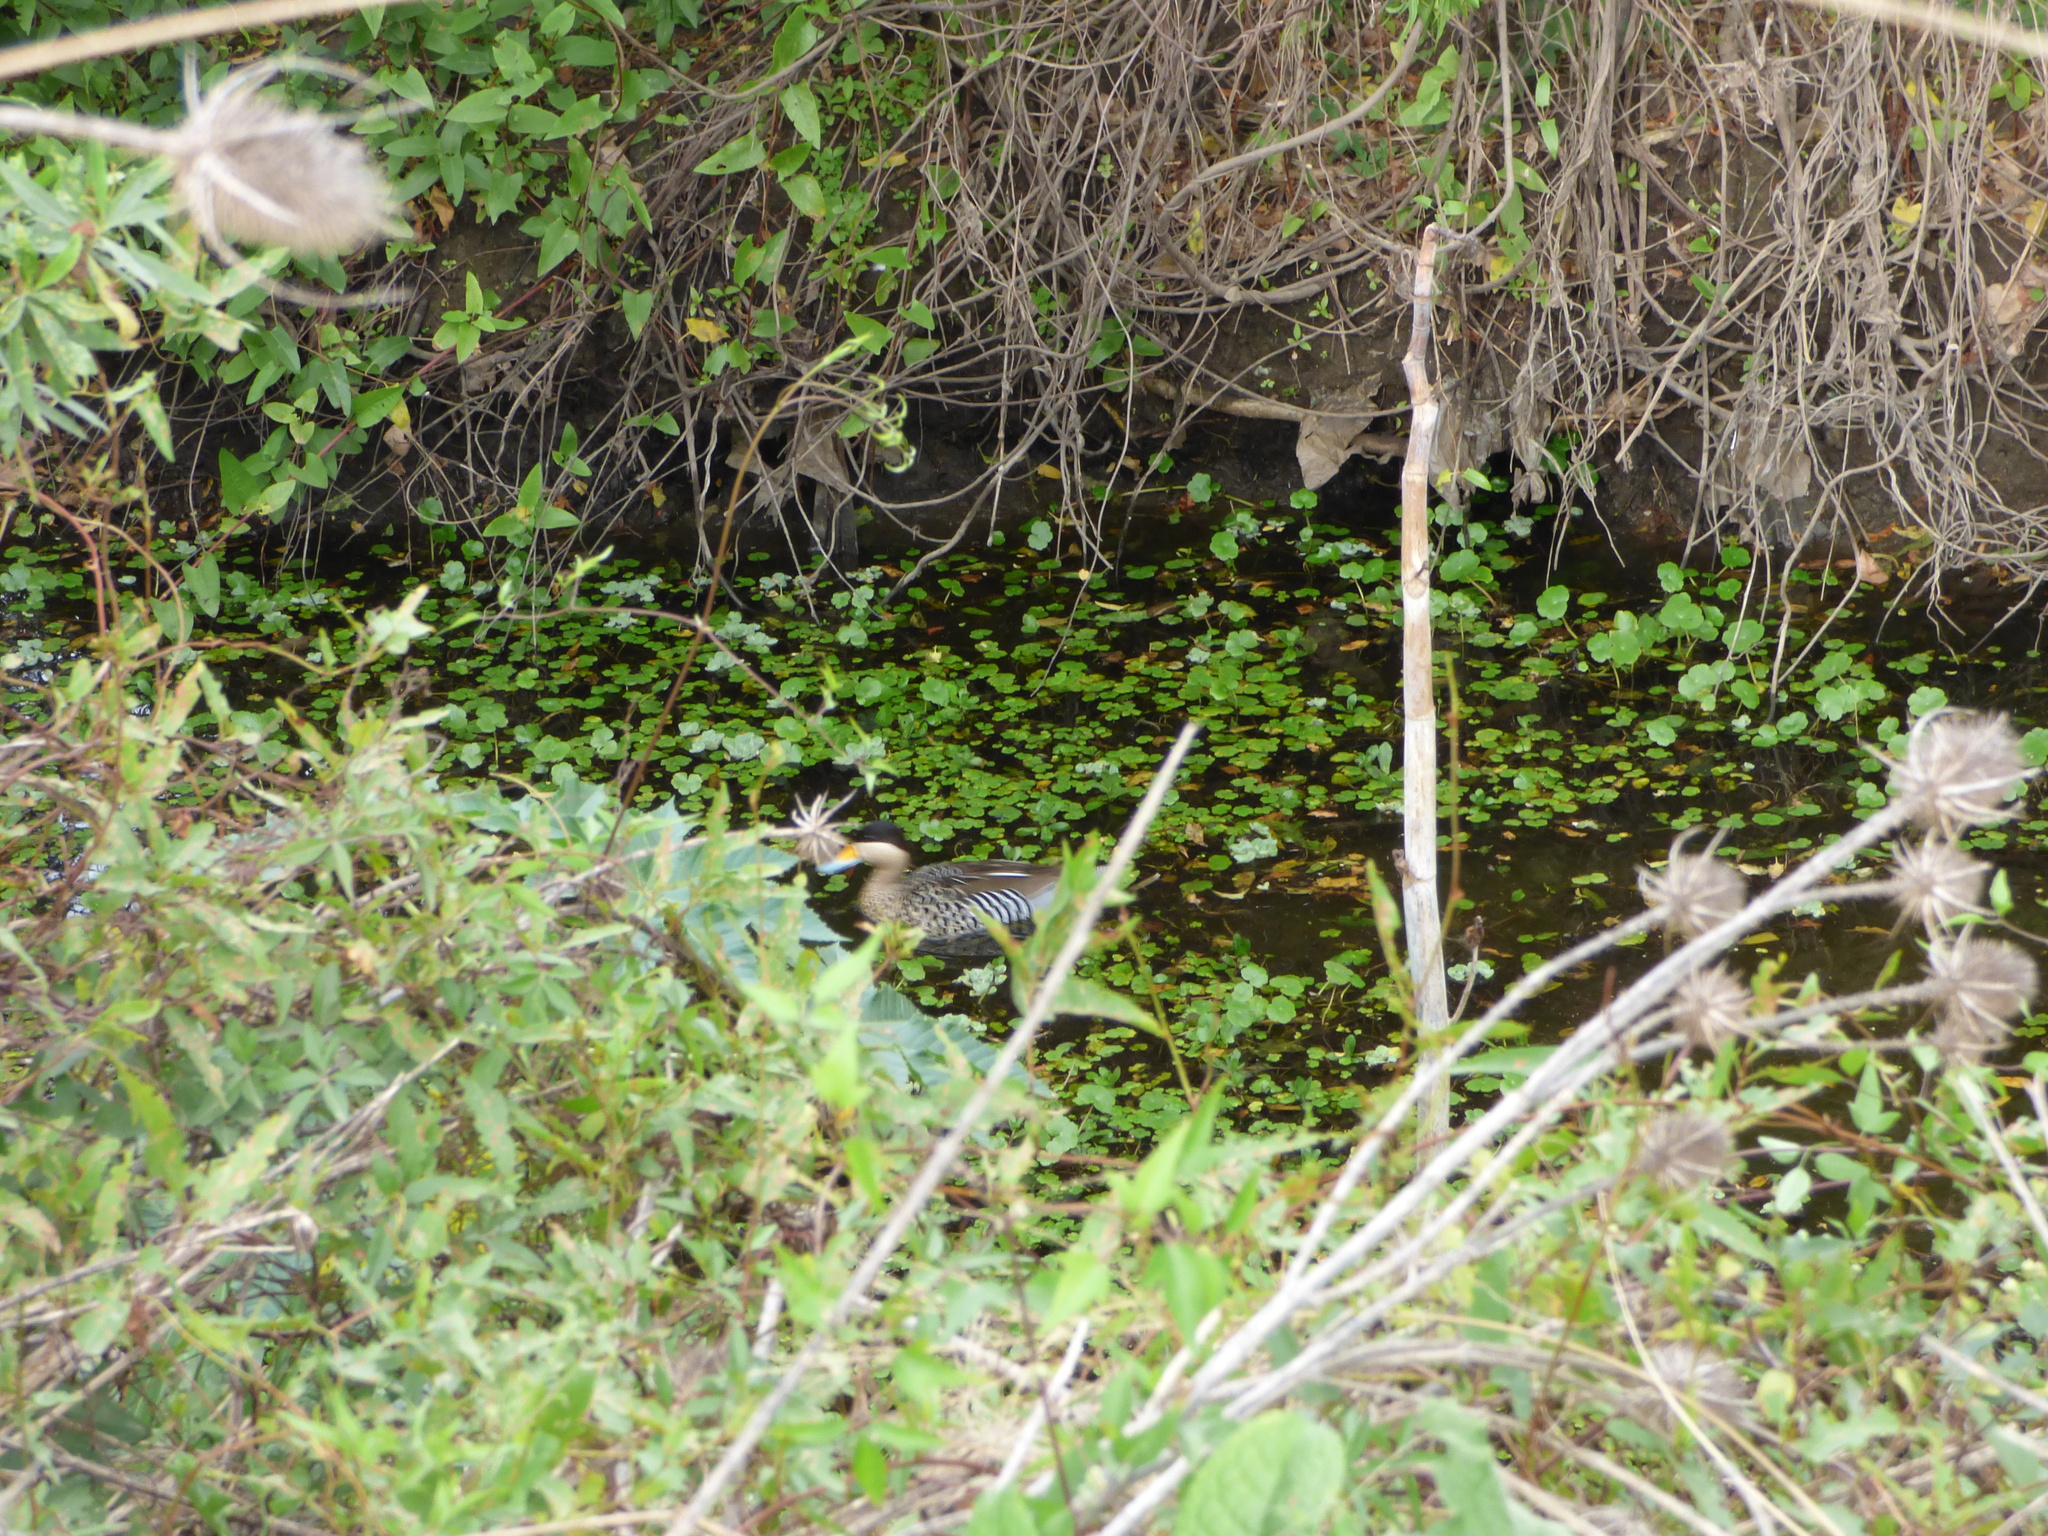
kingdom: Animalia
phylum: Chordata
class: Aves
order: Anseriformes
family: Anatidae
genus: Spatula
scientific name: Spatula versicolor
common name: Silver teal
